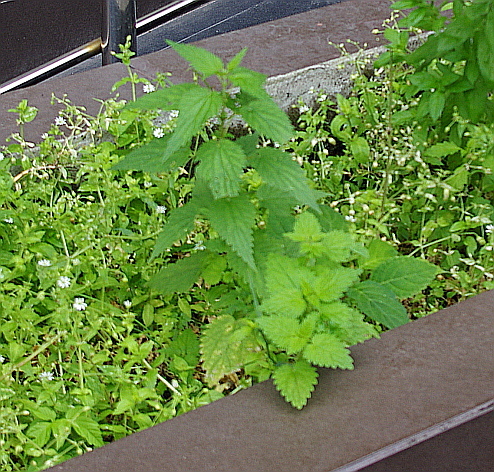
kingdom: Plantae
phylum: Tracheophyta
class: Magnoliopsida
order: Rosales
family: Urticaceae
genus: Urtica
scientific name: Urtica dioica
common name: Common nettle
